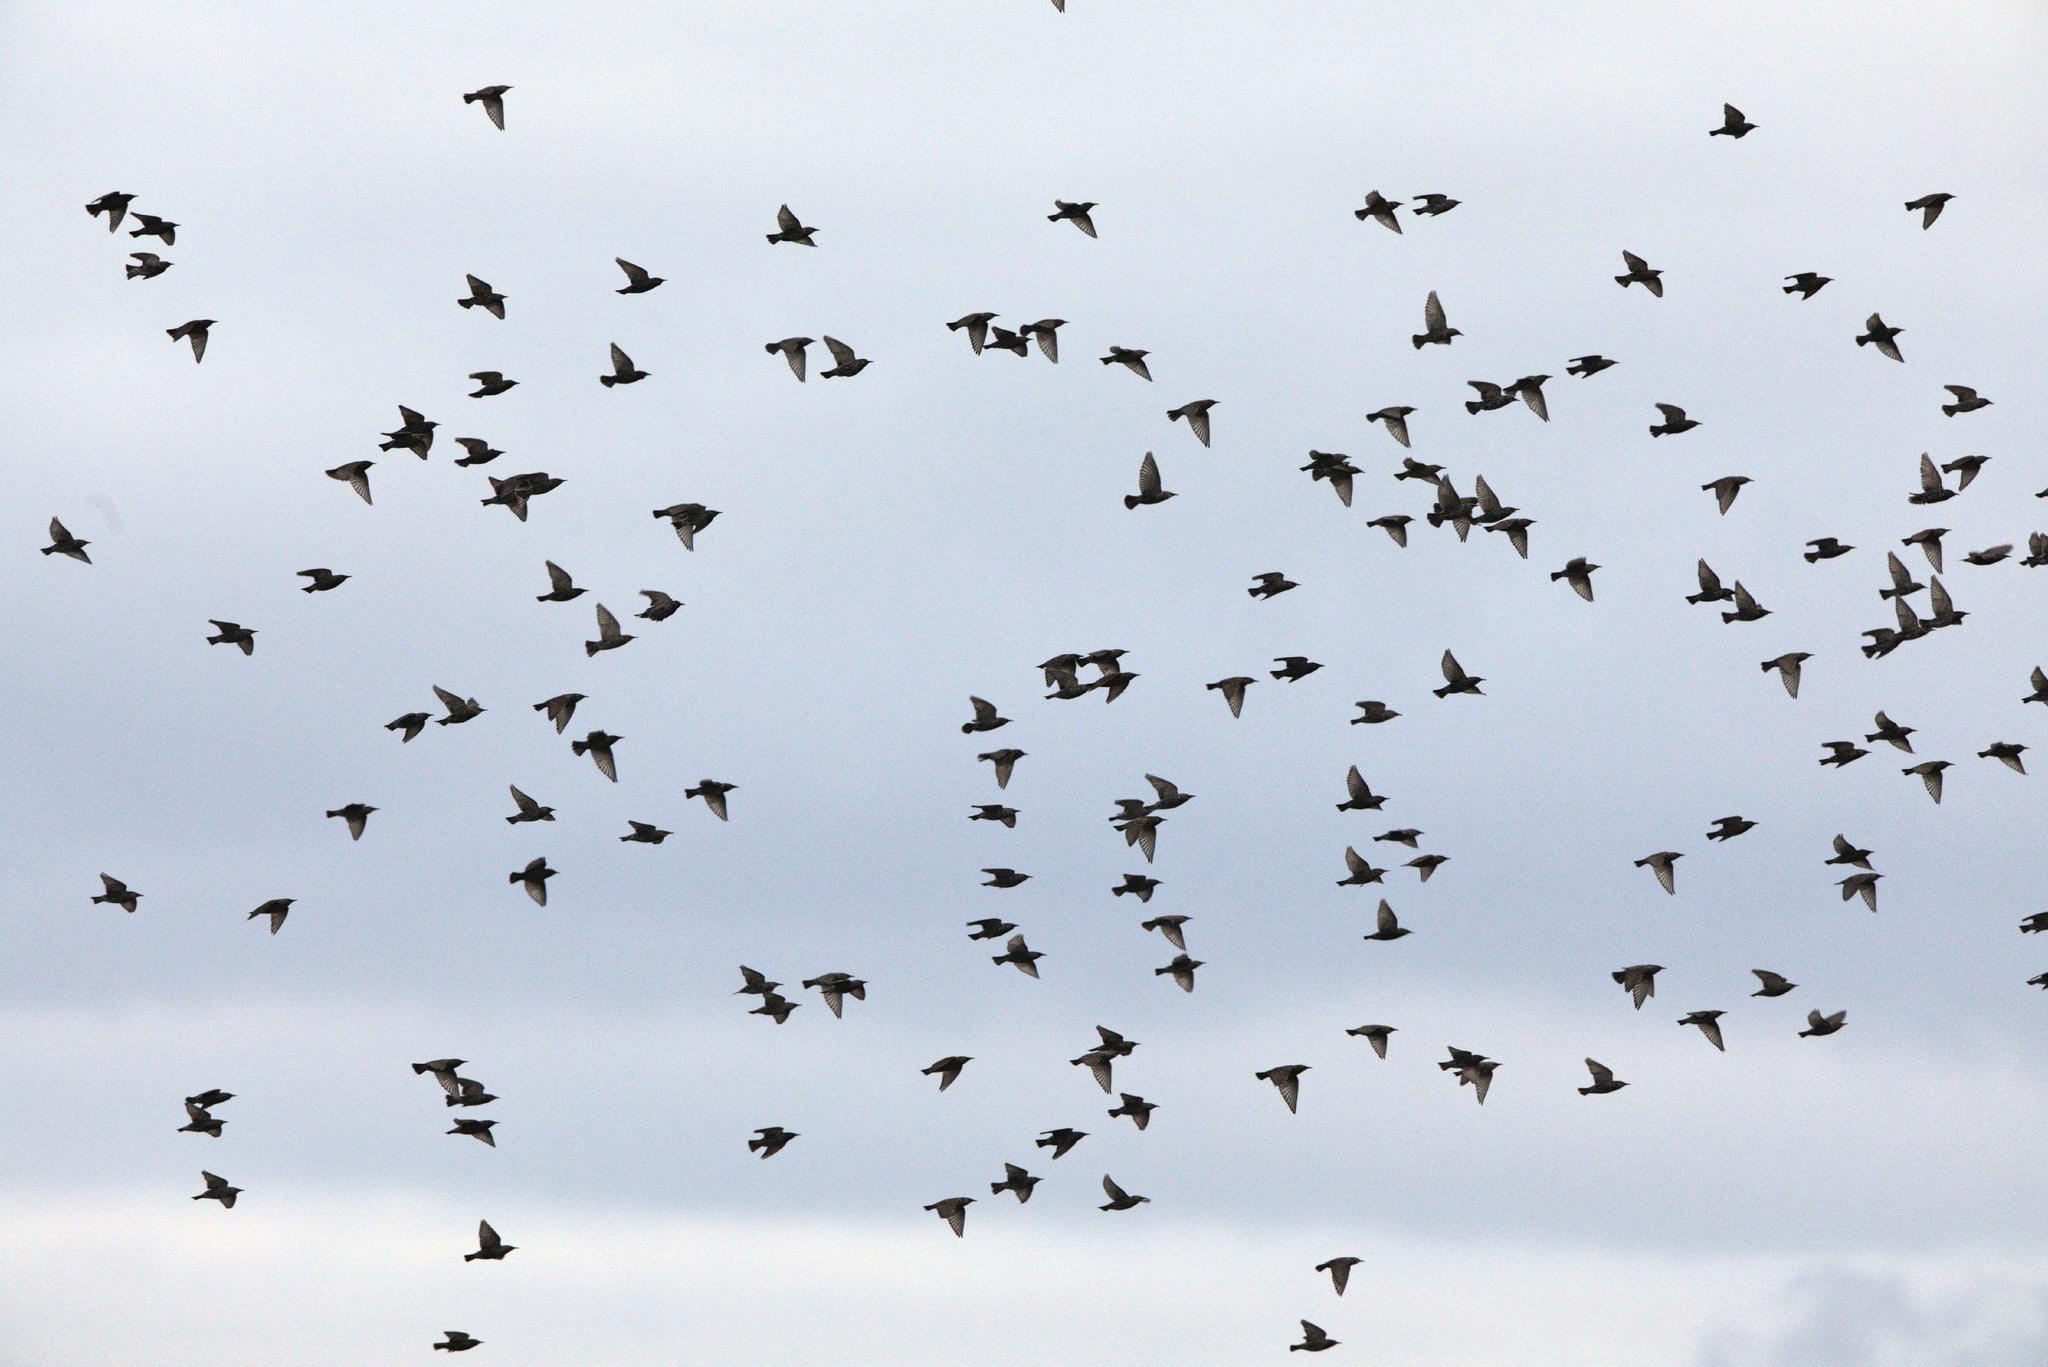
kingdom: Animalia
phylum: Chordata
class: Aves
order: Passeriformes
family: Sturnidae
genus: Sturnus
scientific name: Sturnus vulgaris
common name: Common starling
